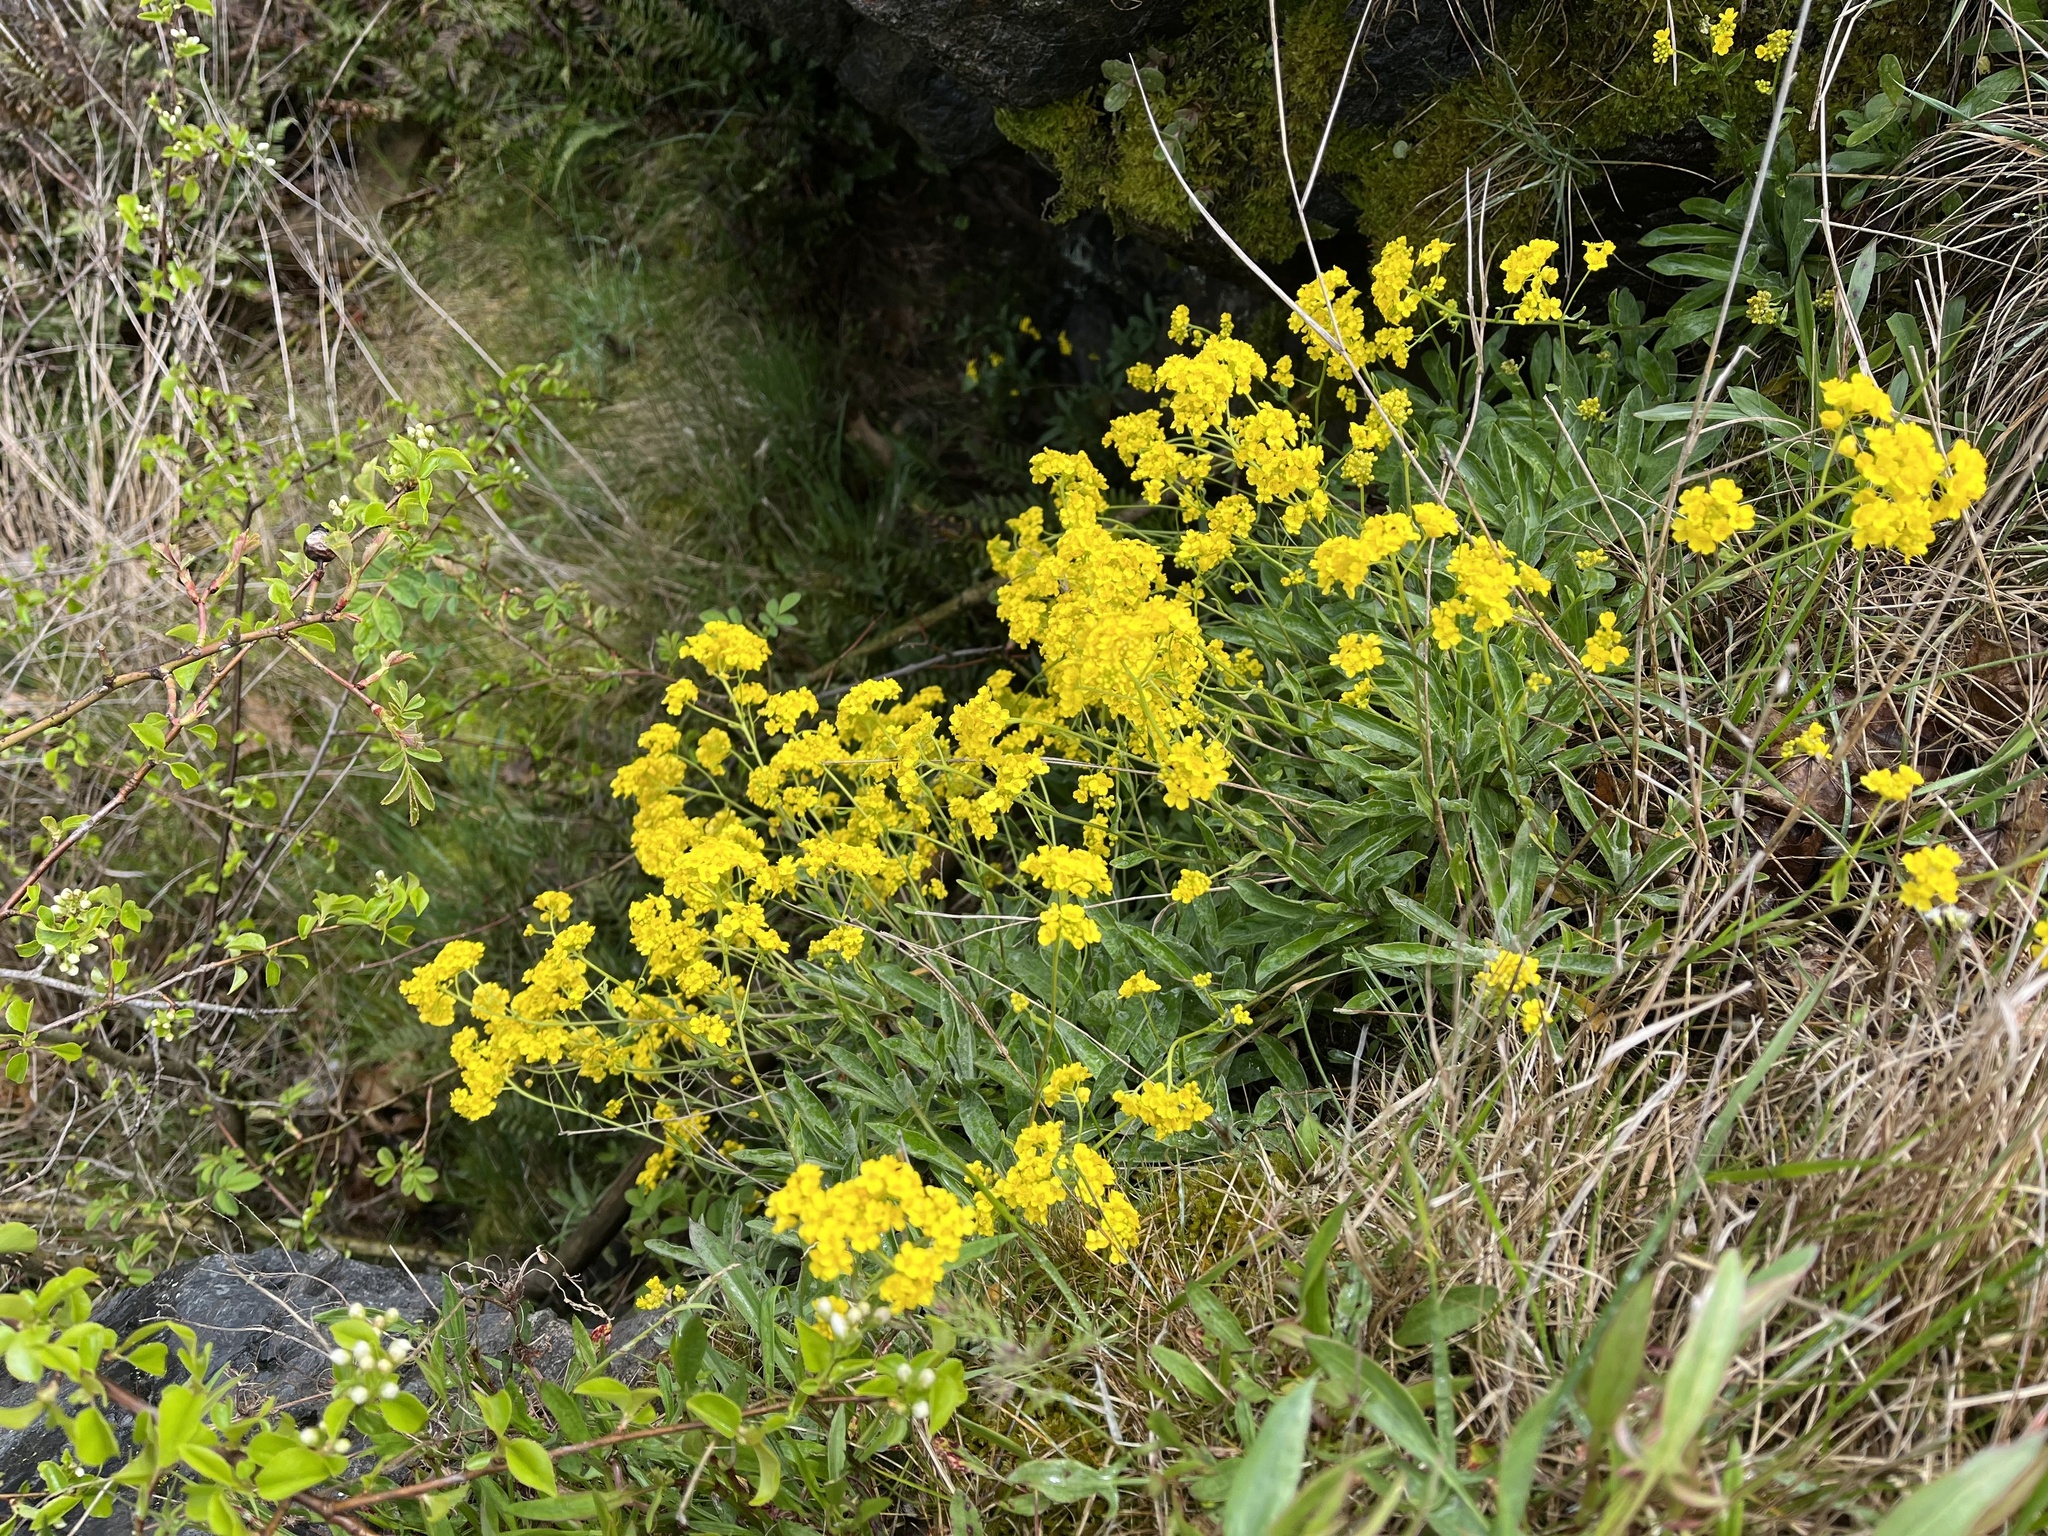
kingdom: Plantae
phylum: Tracheophyta
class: Magnoliopsida
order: Brassicales
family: Brassicaceae
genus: Aurinia
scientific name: Aurinia saxatilis
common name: Golden-tuft alyssum
